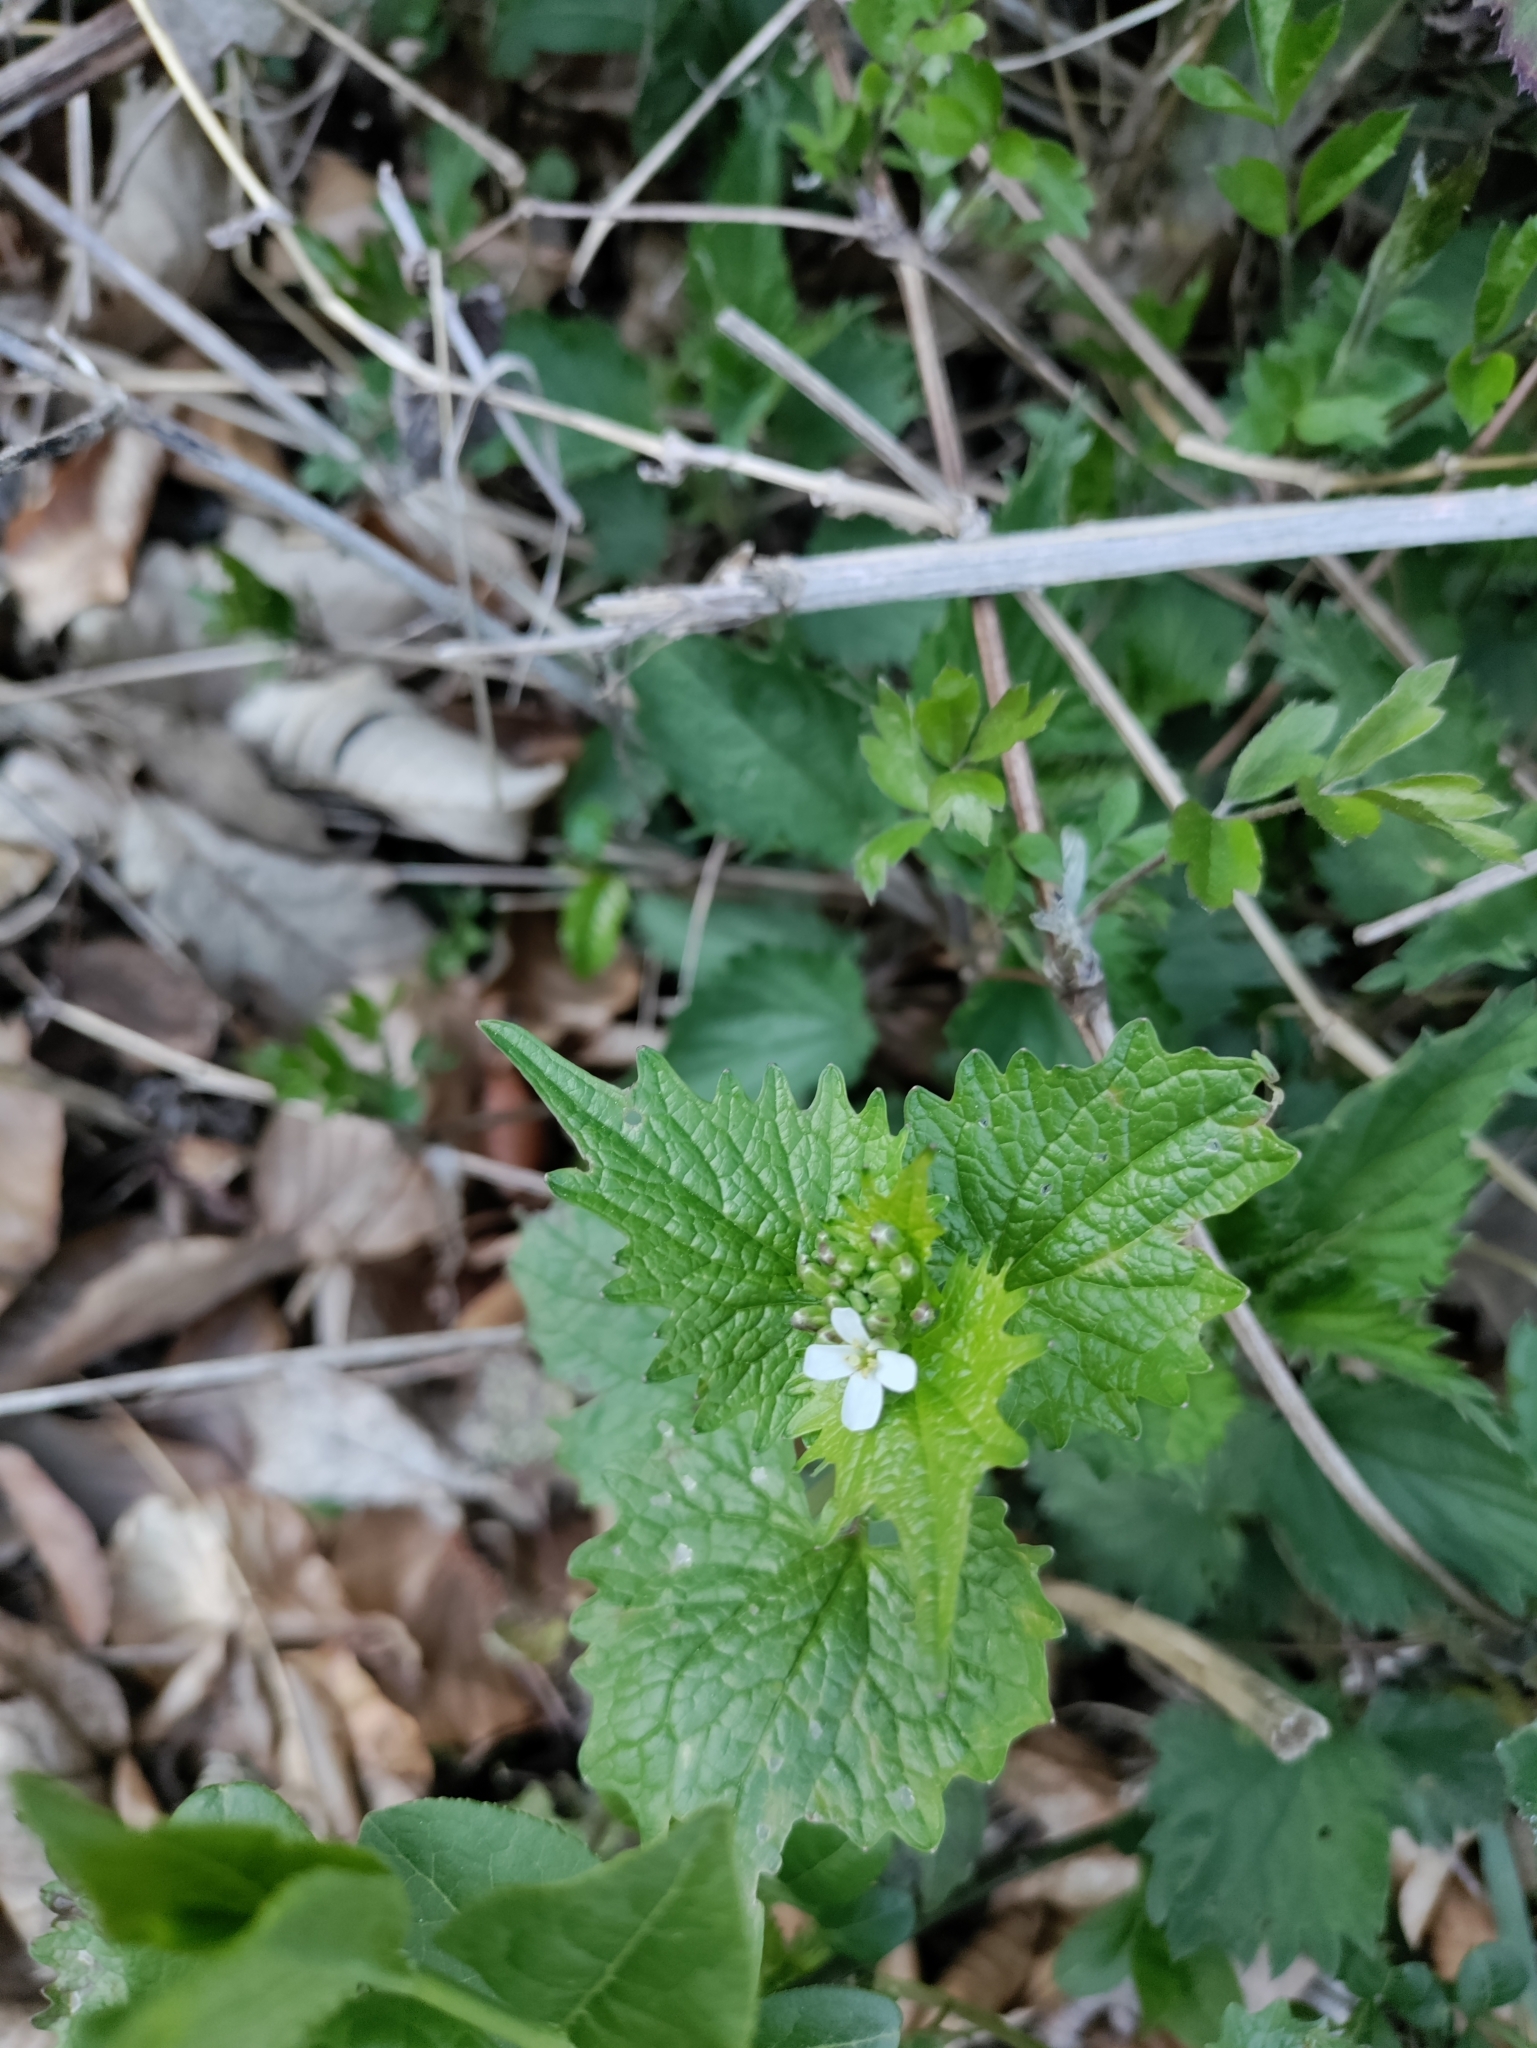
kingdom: Plantae
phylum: Tracheophyta
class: Magnoliopsida
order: Brassicales
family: Brassicaceae
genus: Alliaria
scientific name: Alliaria petiolata
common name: Garlic mustard
